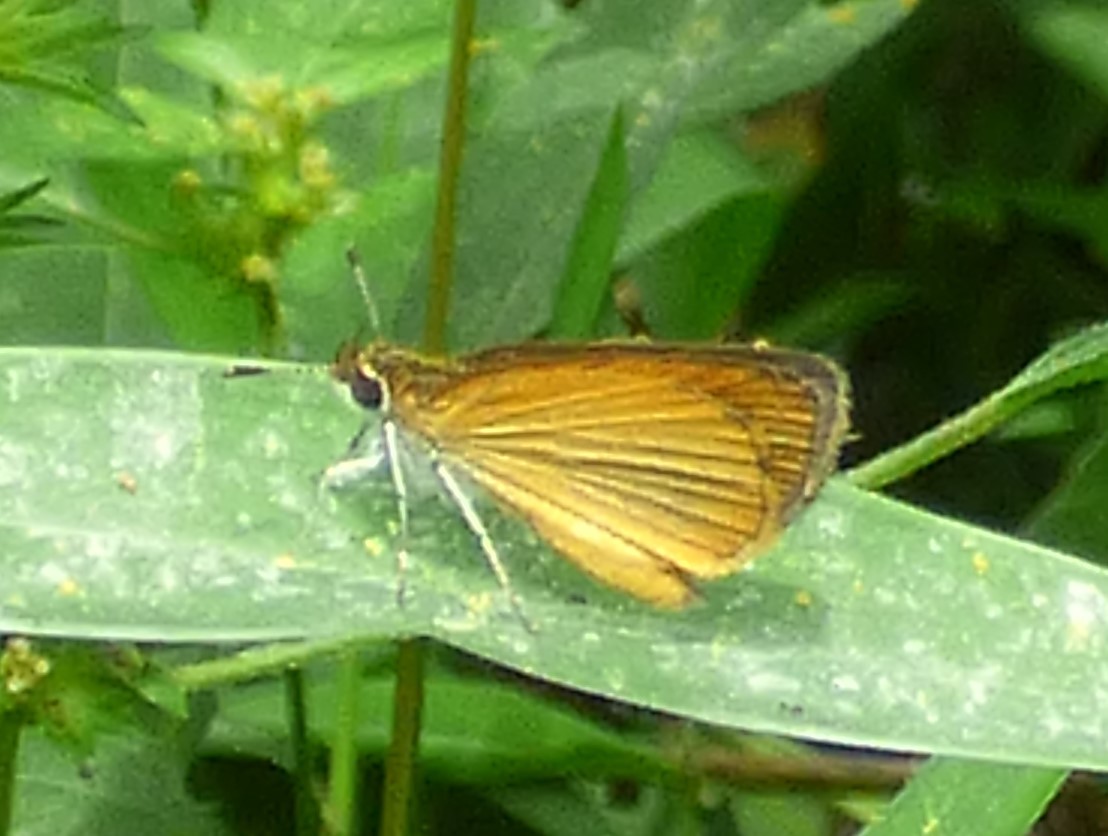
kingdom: Animalia
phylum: Arthropoda
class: Insecta
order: Lepidoptera
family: Hesperiidae
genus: Ancyloxypha
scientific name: Ancyloxypha numitor
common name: Least skipper
